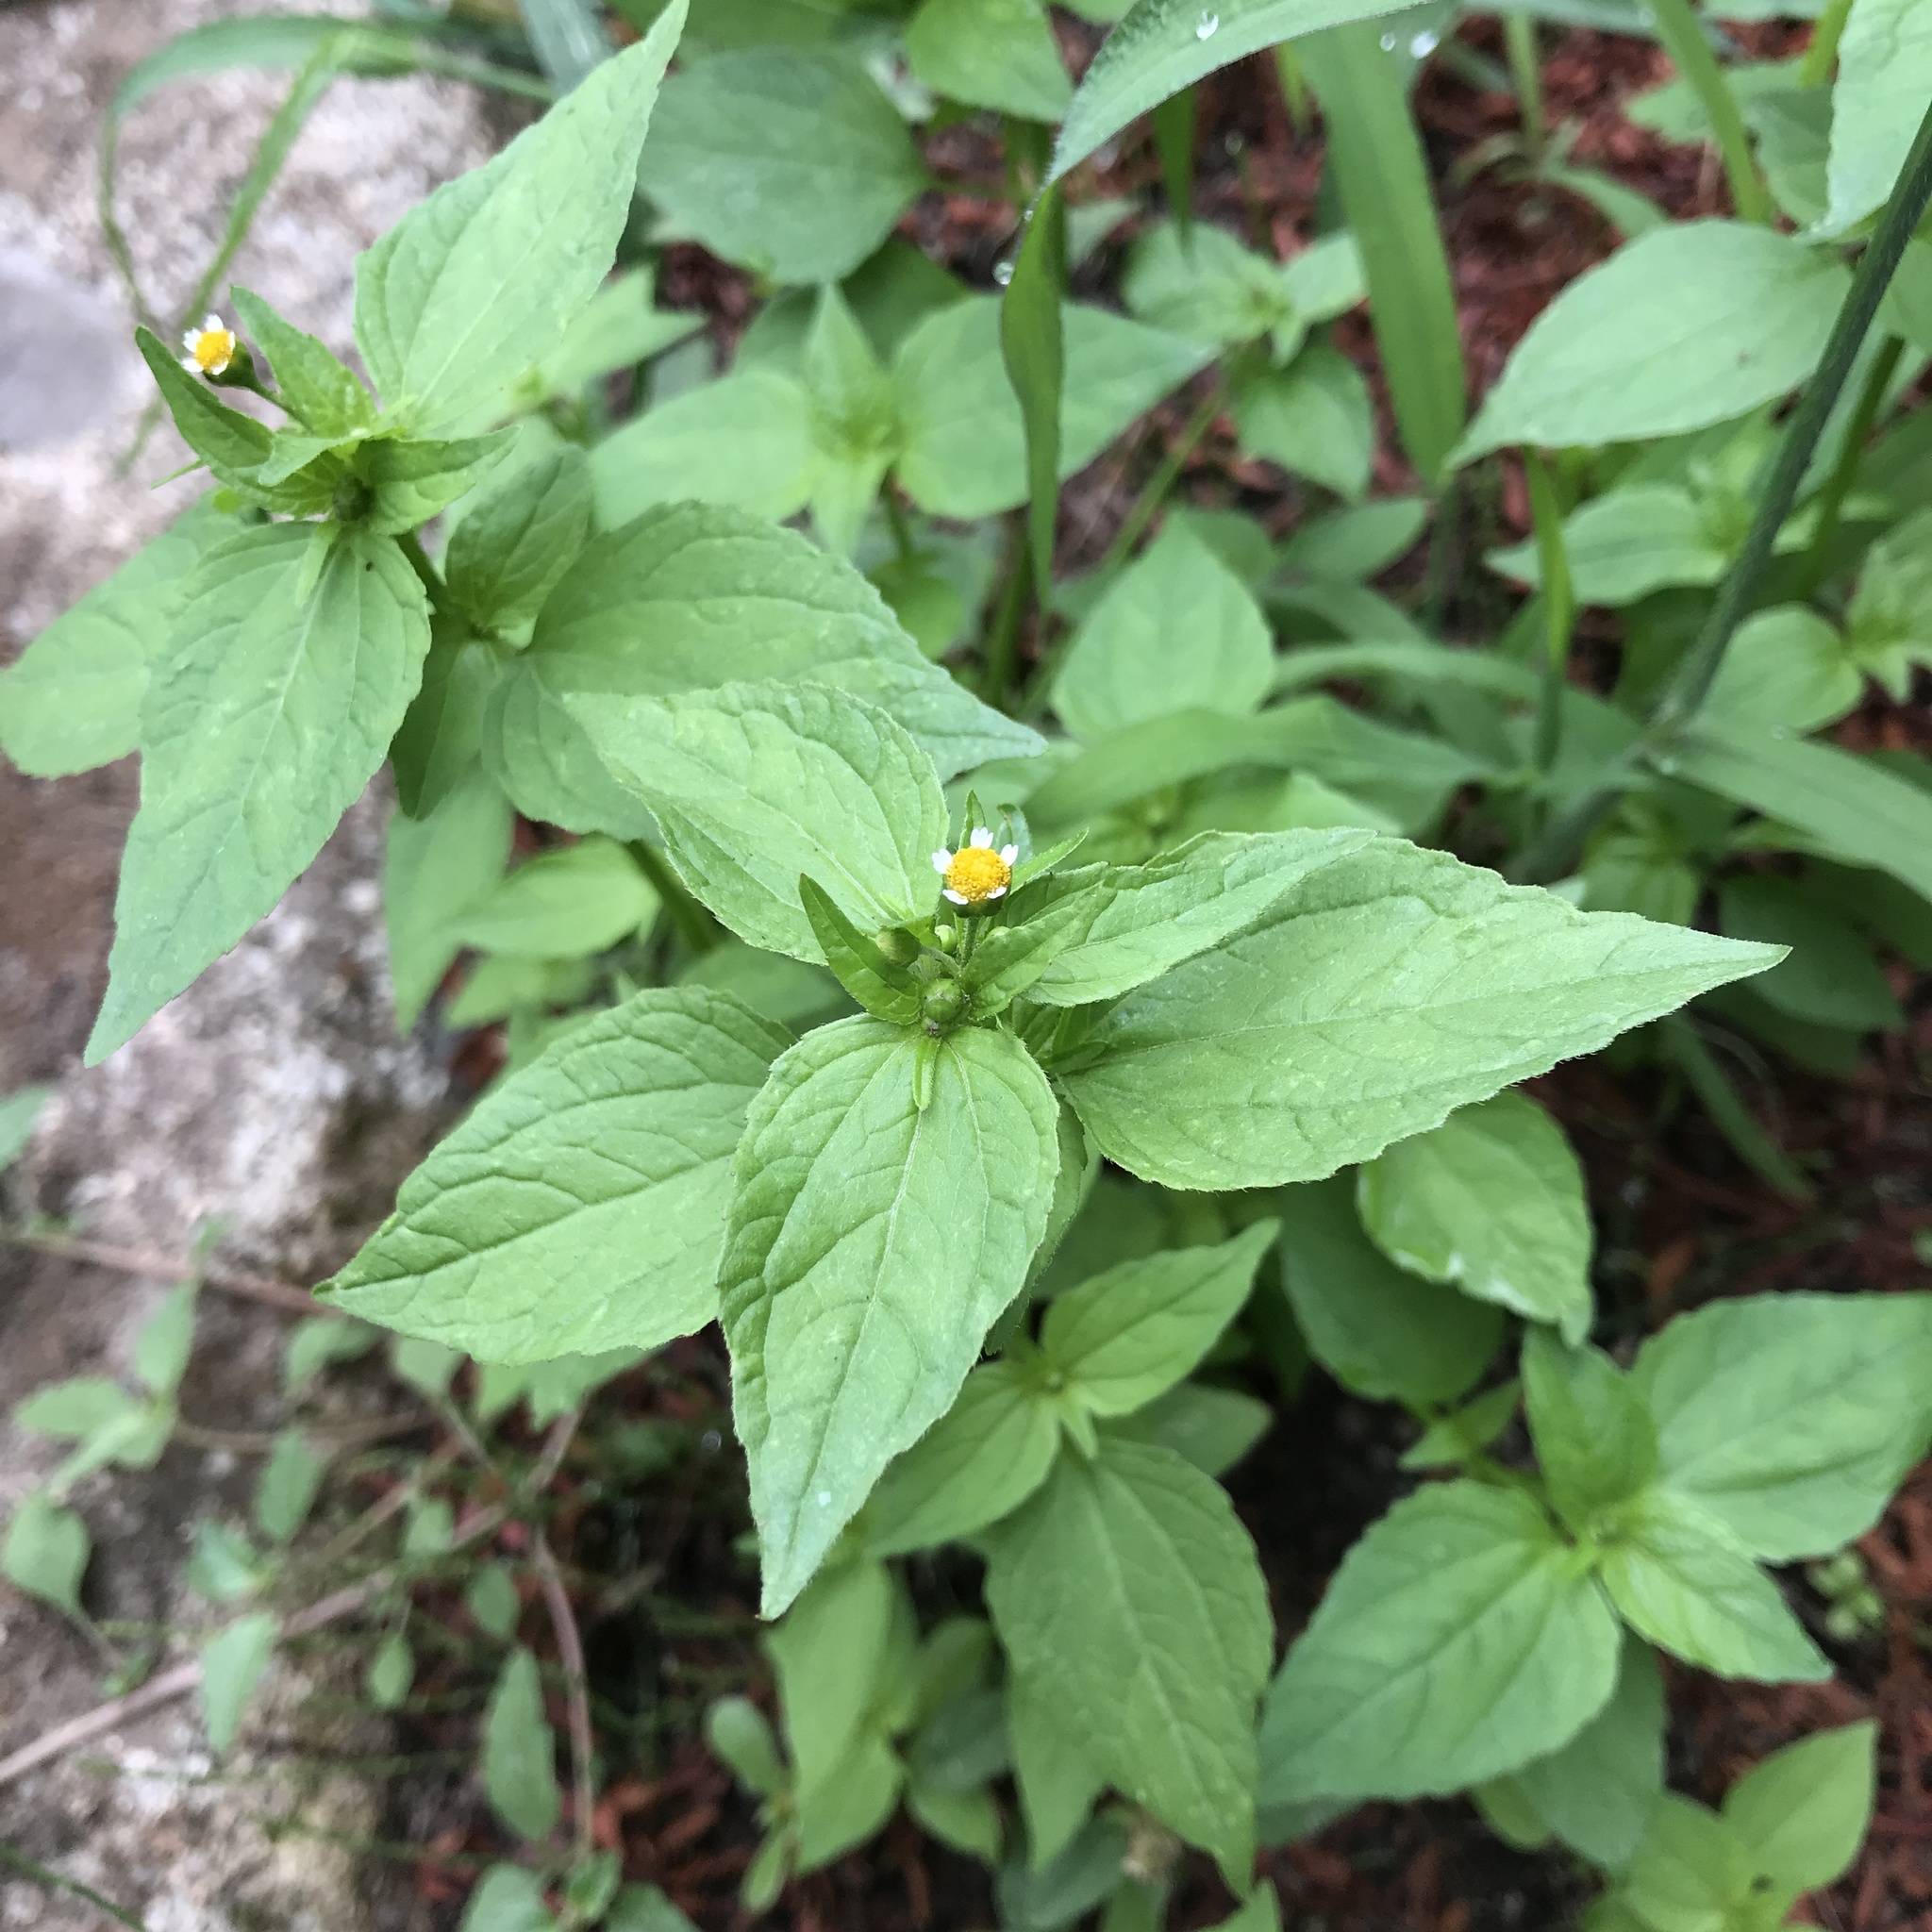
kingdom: Plantae
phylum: Tracheophyta
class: Magnoliopsida
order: Asterales
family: Asteraceae
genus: Galinsoga
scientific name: Galinsoga parviflora
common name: Gallant soldier
